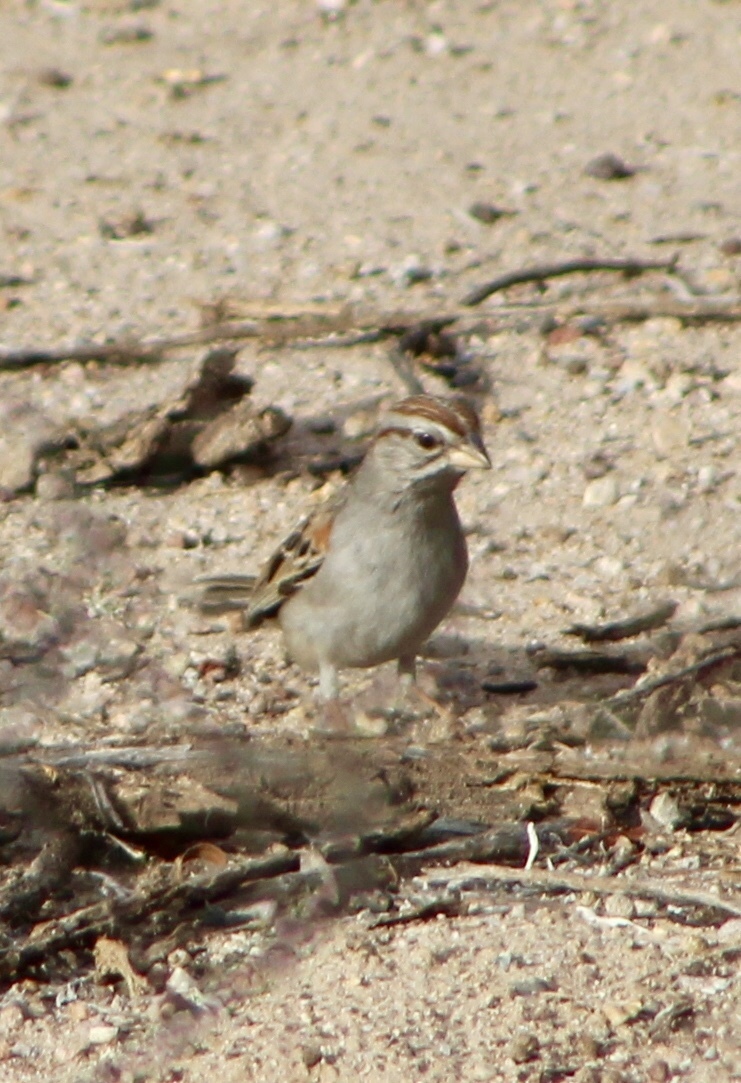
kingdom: Animalia
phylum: Chordata
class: Aves
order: Passeriformes
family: Passerellidae
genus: Peucaea
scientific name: Peucaea carpalis
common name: Rufous-winged sparrow
